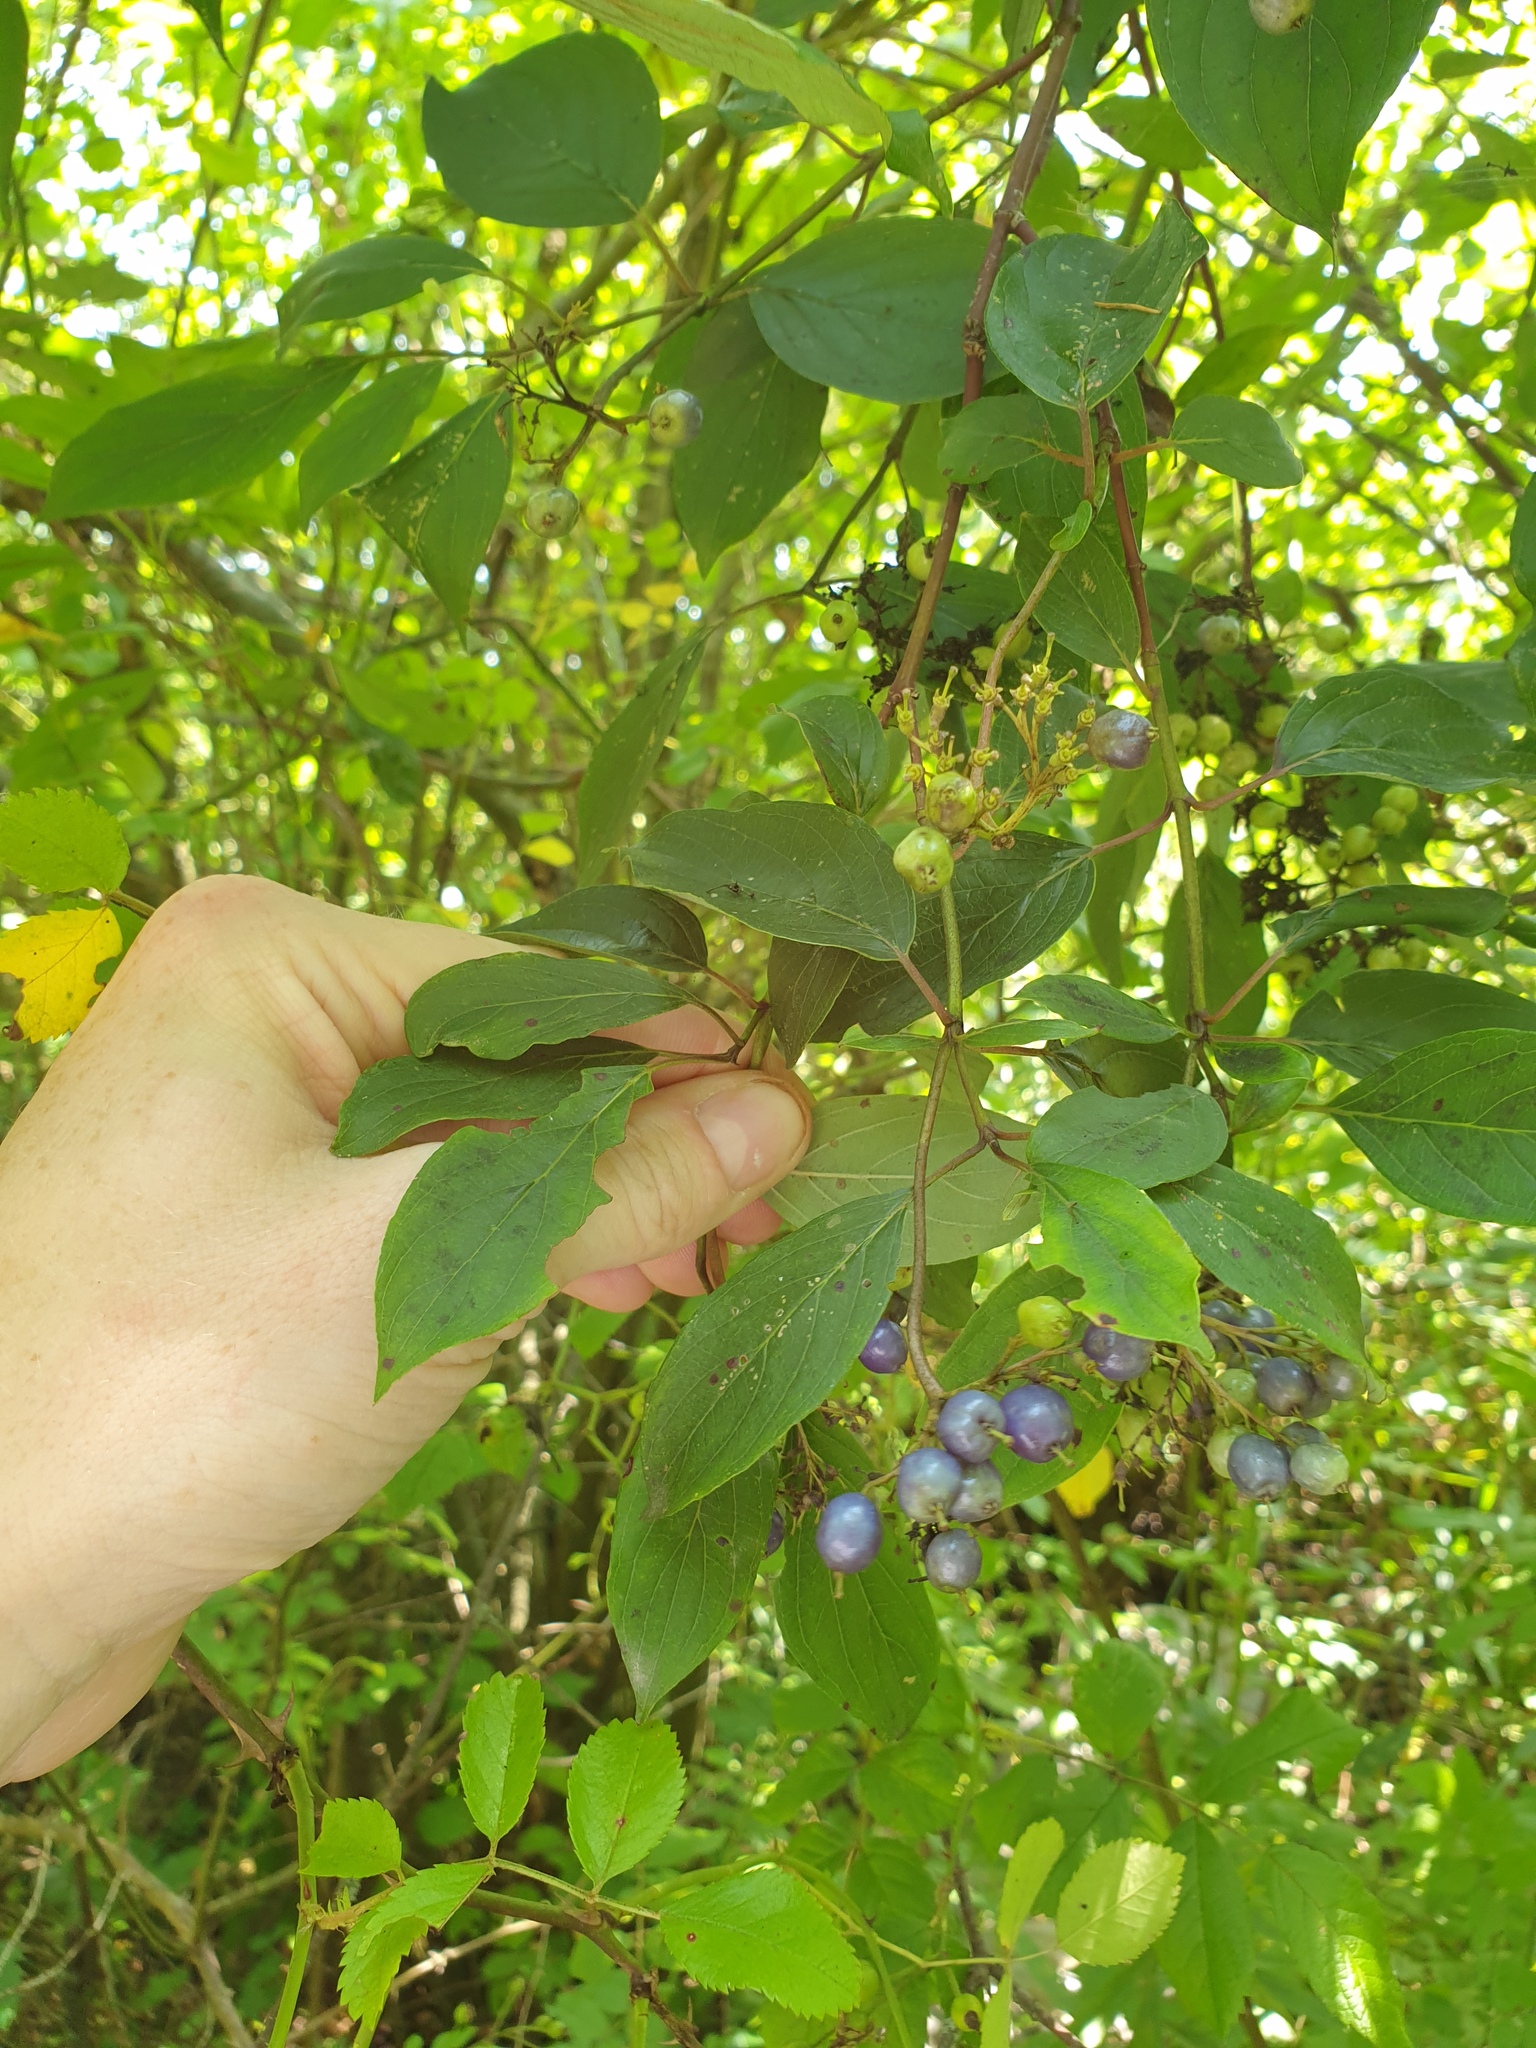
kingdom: Plantae
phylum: Tracheophyta
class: Magnoliopsida
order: Cornales
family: Cornaceae
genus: Cornus
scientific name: Cornus obliqua
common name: Pale dogwood
